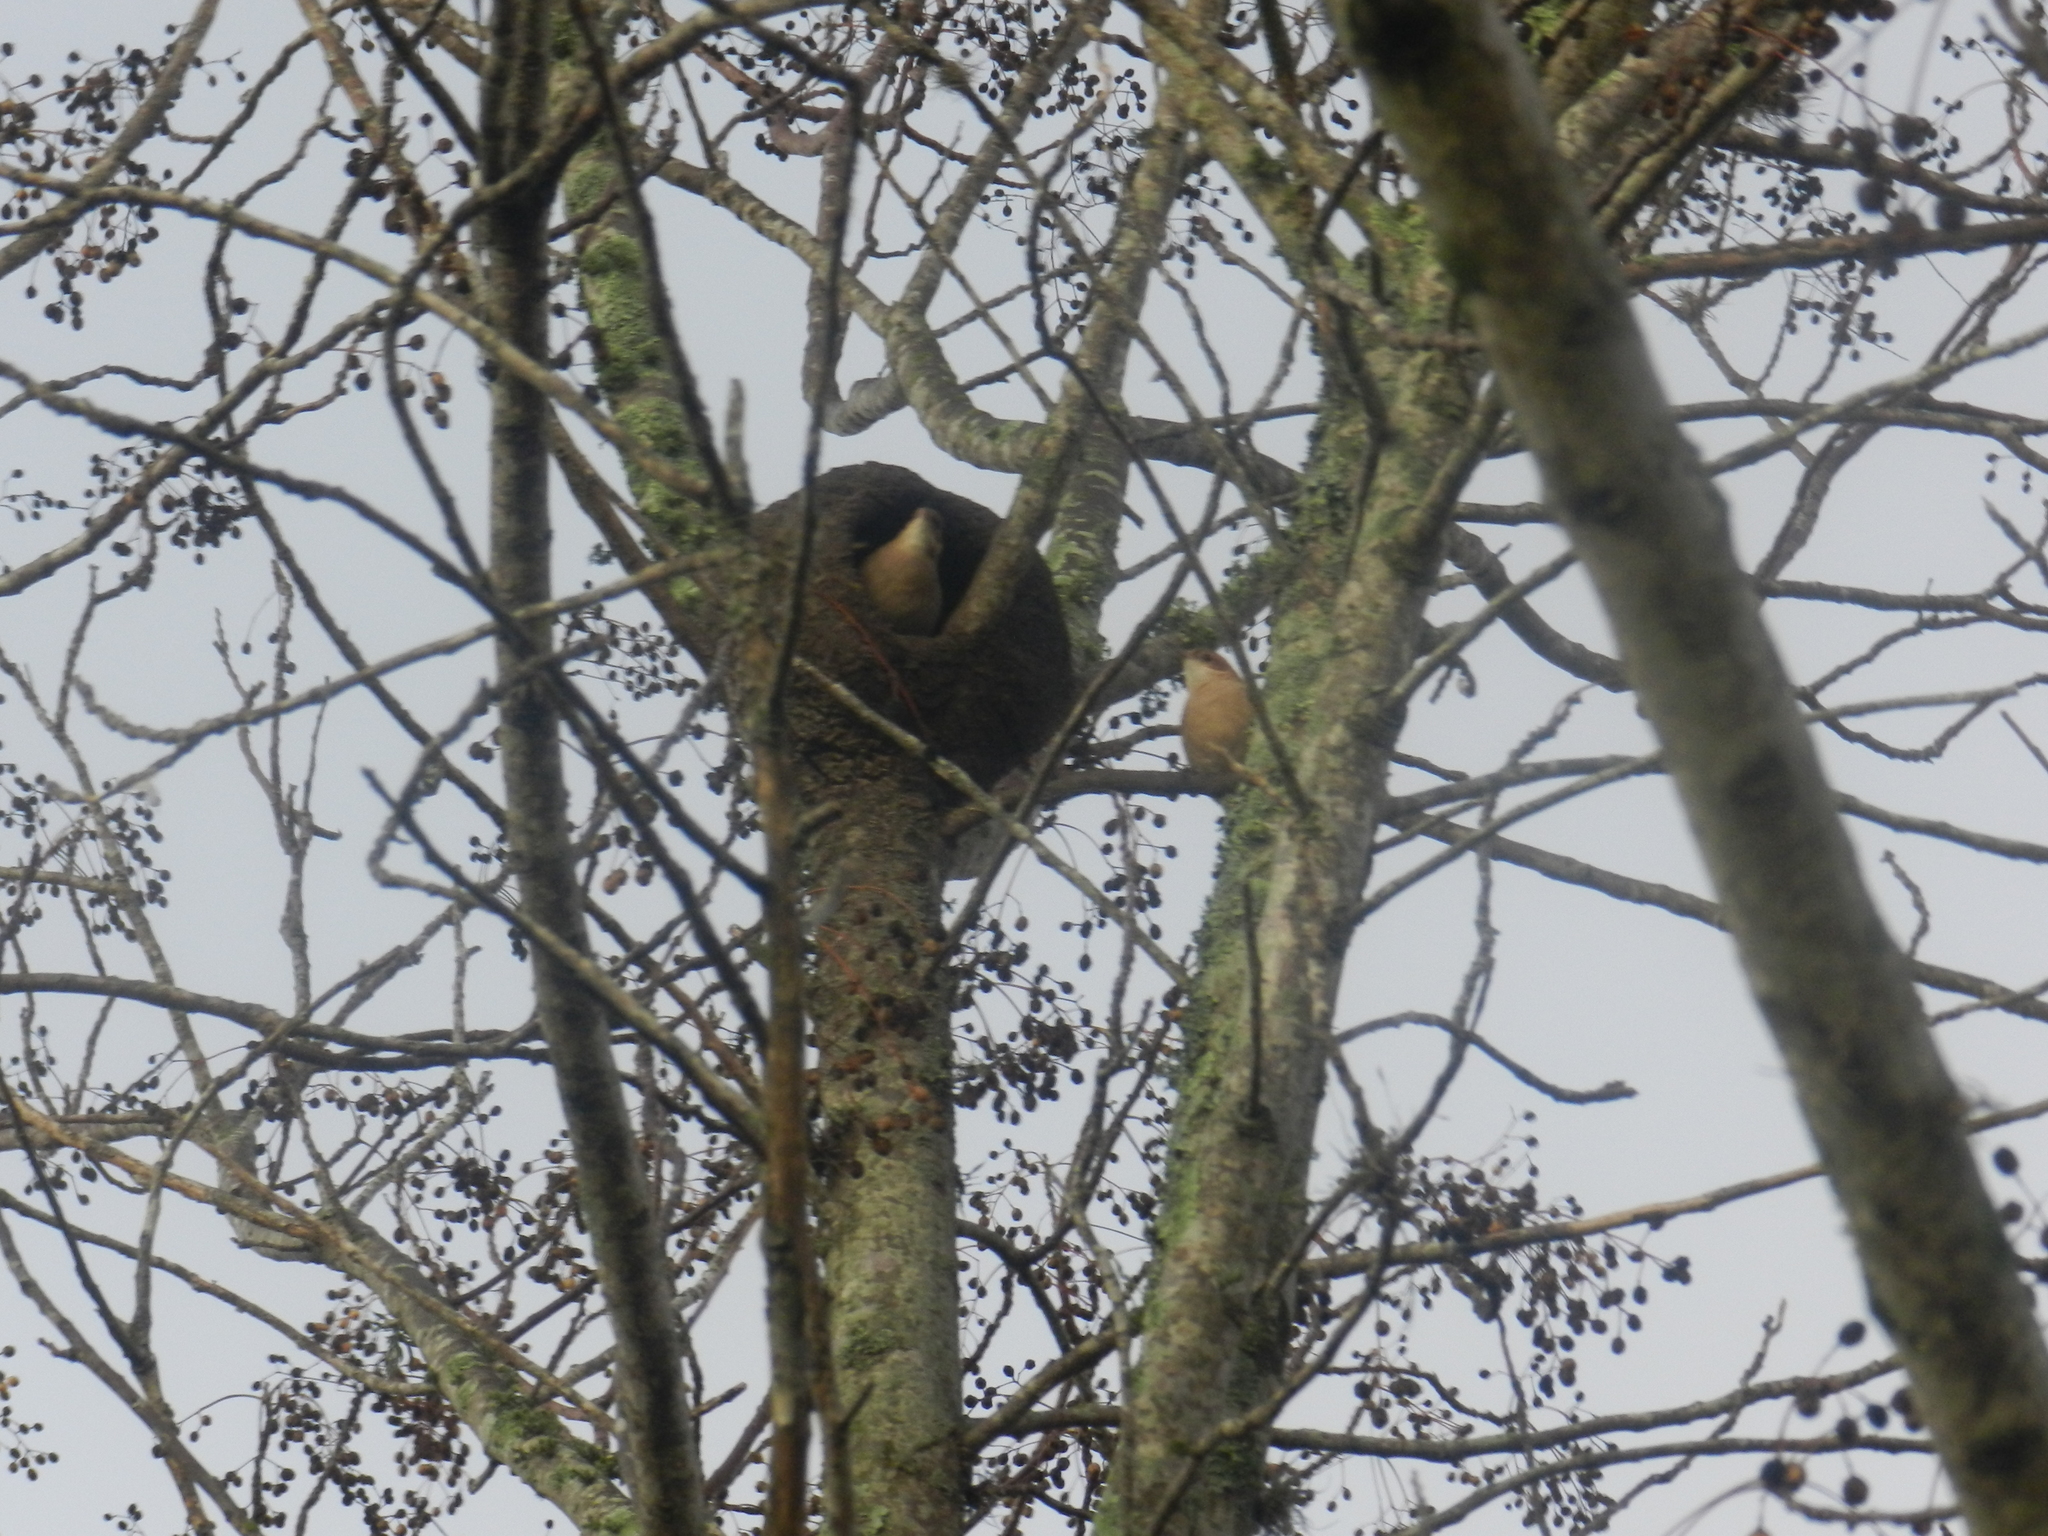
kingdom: Animalia
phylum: Chordata
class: Aves
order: Passeriformes
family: Furnariidae
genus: Furnarius
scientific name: Furnarius rufus
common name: Rufous hornero
